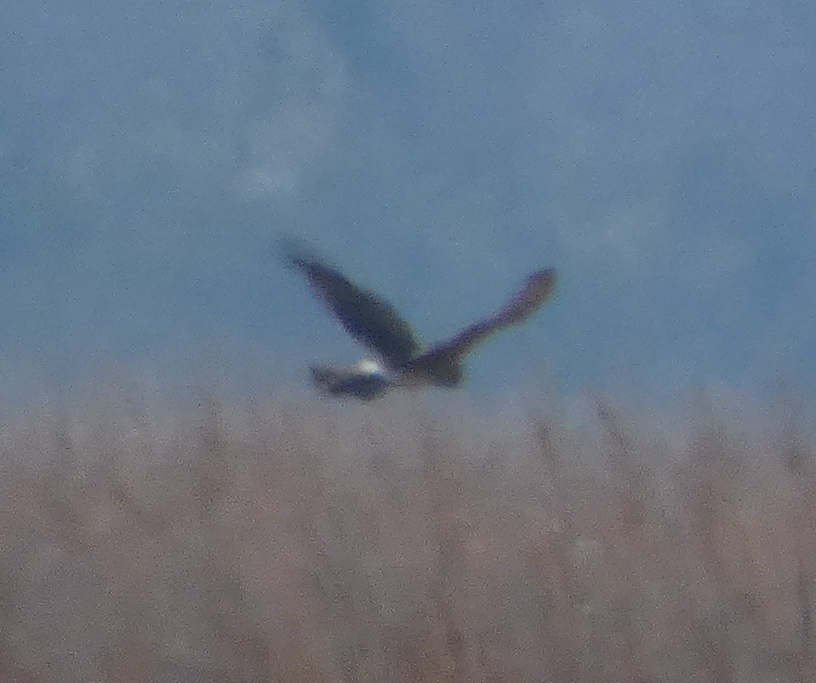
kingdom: Animalia
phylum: Chordata
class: Aves
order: Accipitriformes
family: Accipitridae
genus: Circus
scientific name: Circus cyaneus
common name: Hen harrier
